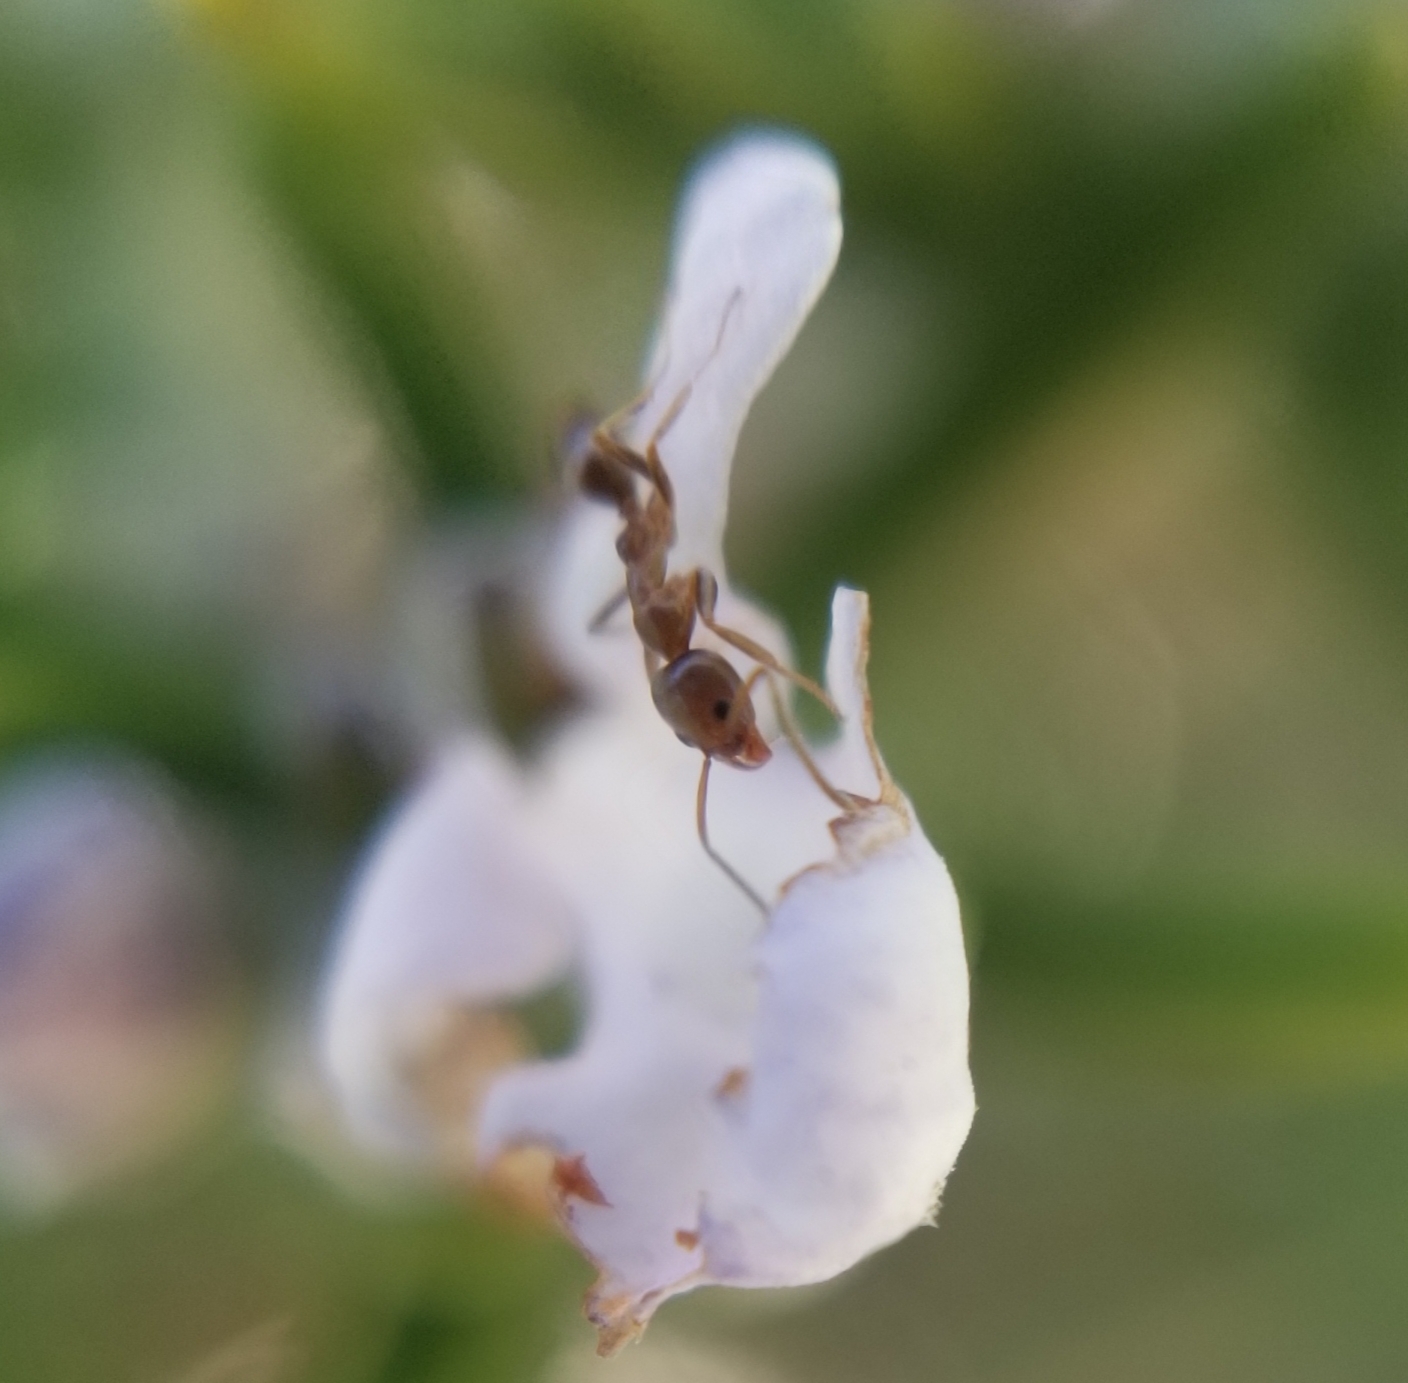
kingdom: Animalia
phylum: Arthropoda
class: Insecta
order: Hymenoptera
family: Formicidae
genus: Linepithema
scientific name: Linepithema humile
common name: Argentine ant
